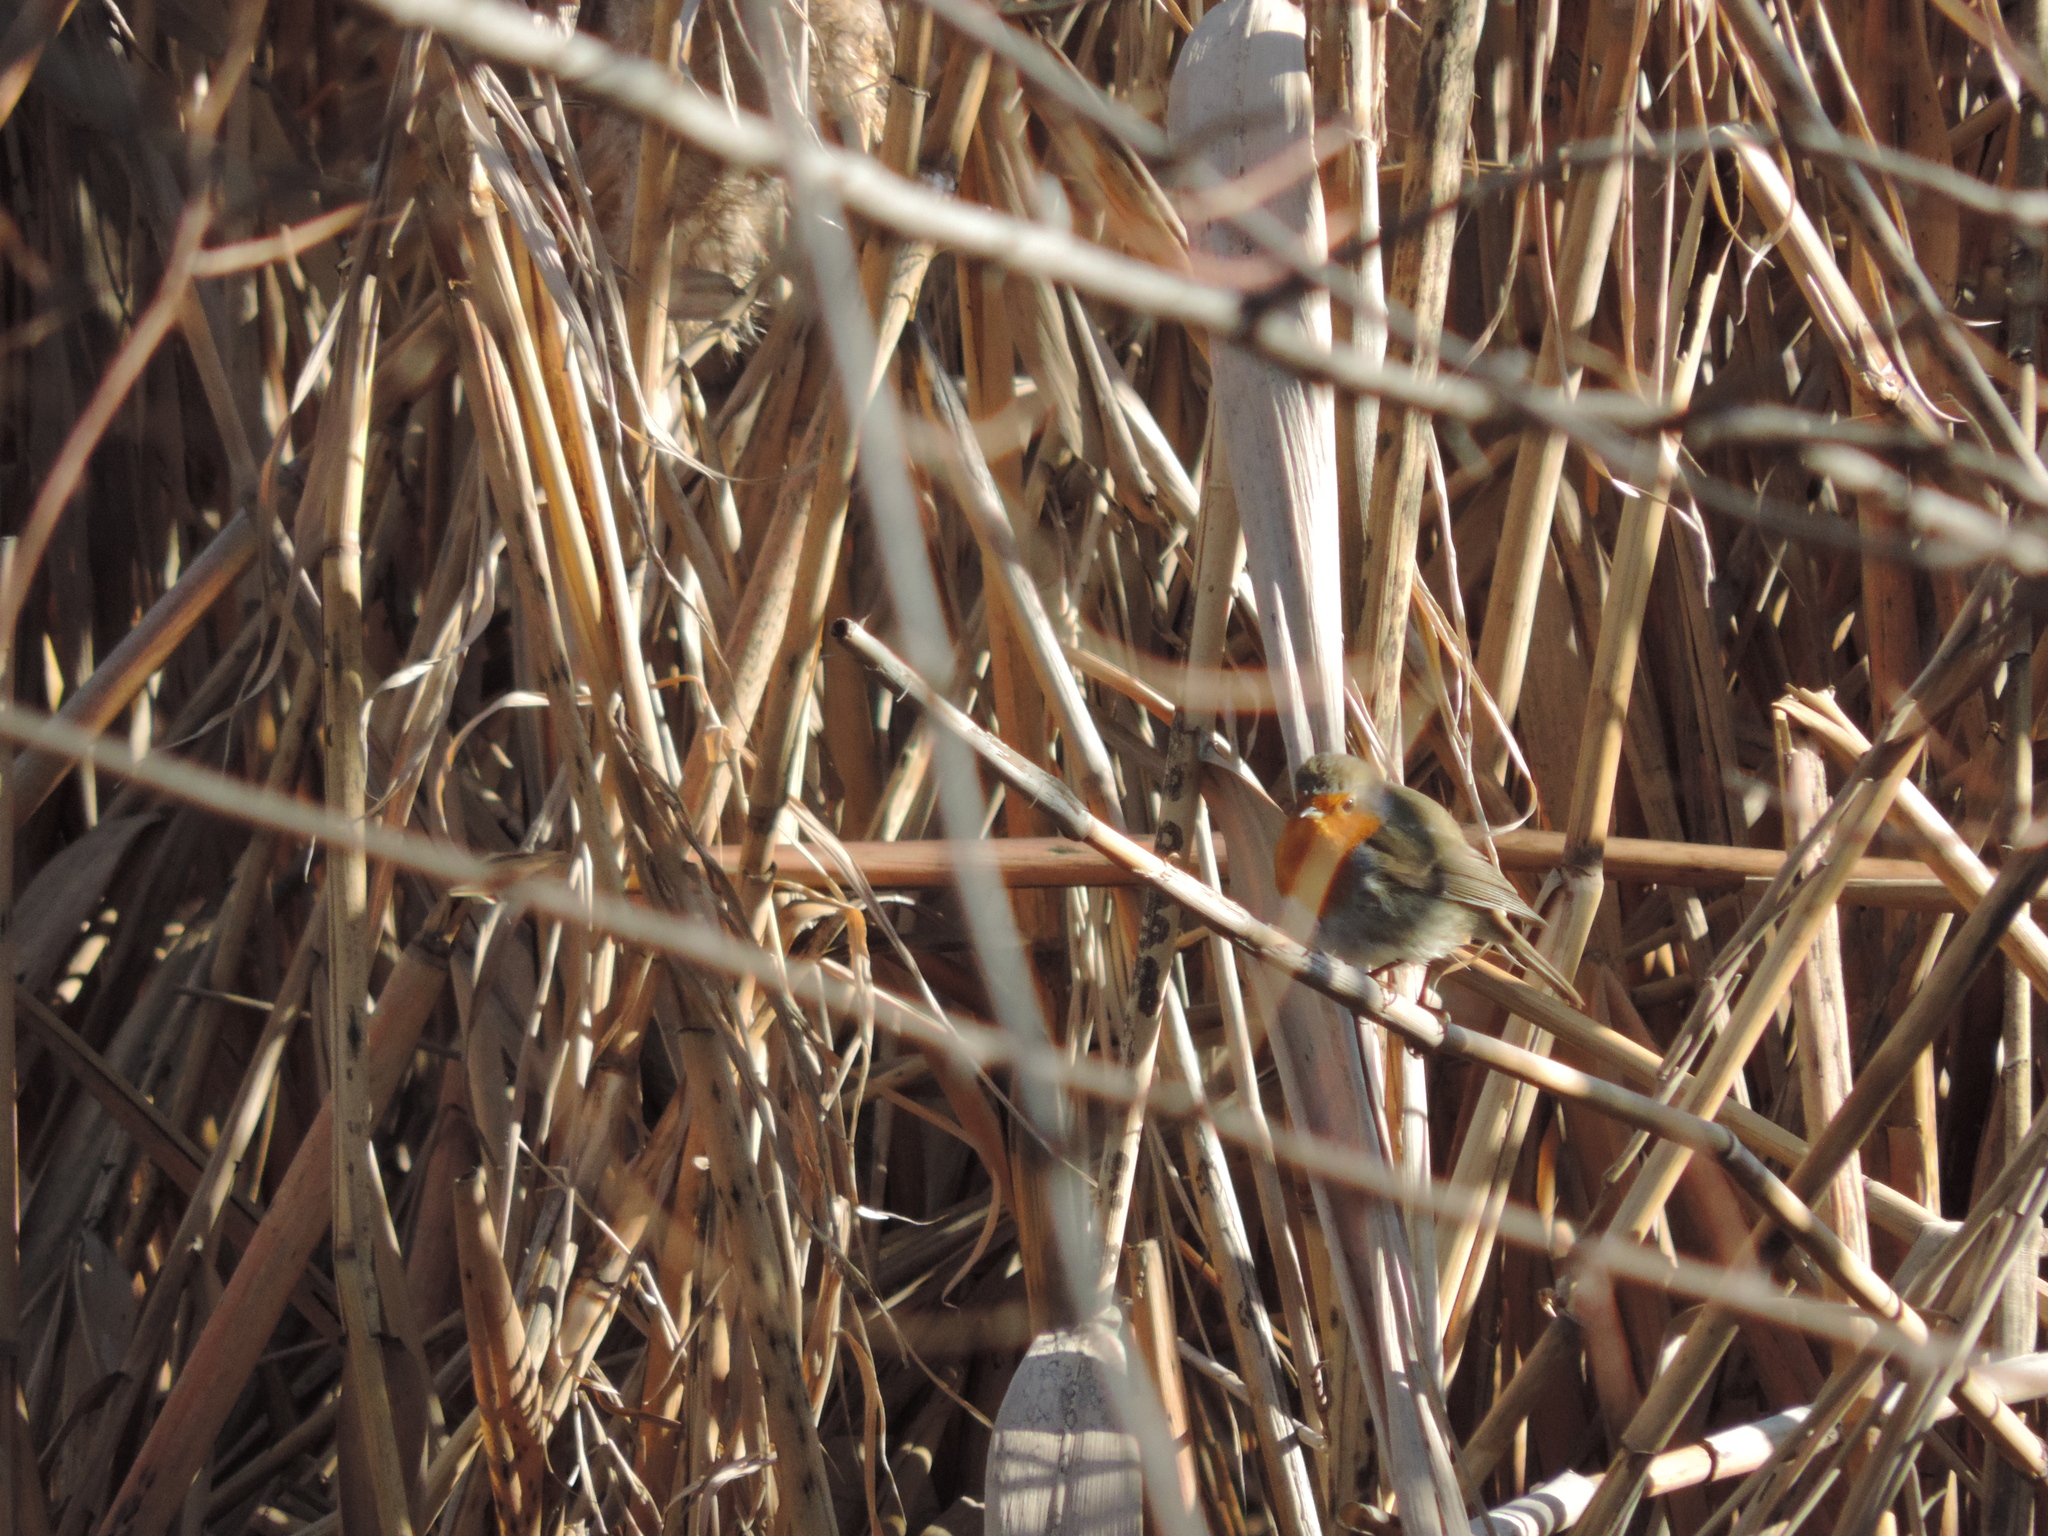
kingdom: Animalia
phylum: Chordata
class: Aves
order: Passeriformes
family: Muscicapidae
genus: Erithacus
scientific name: Erithacus rubecula
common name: European robin
